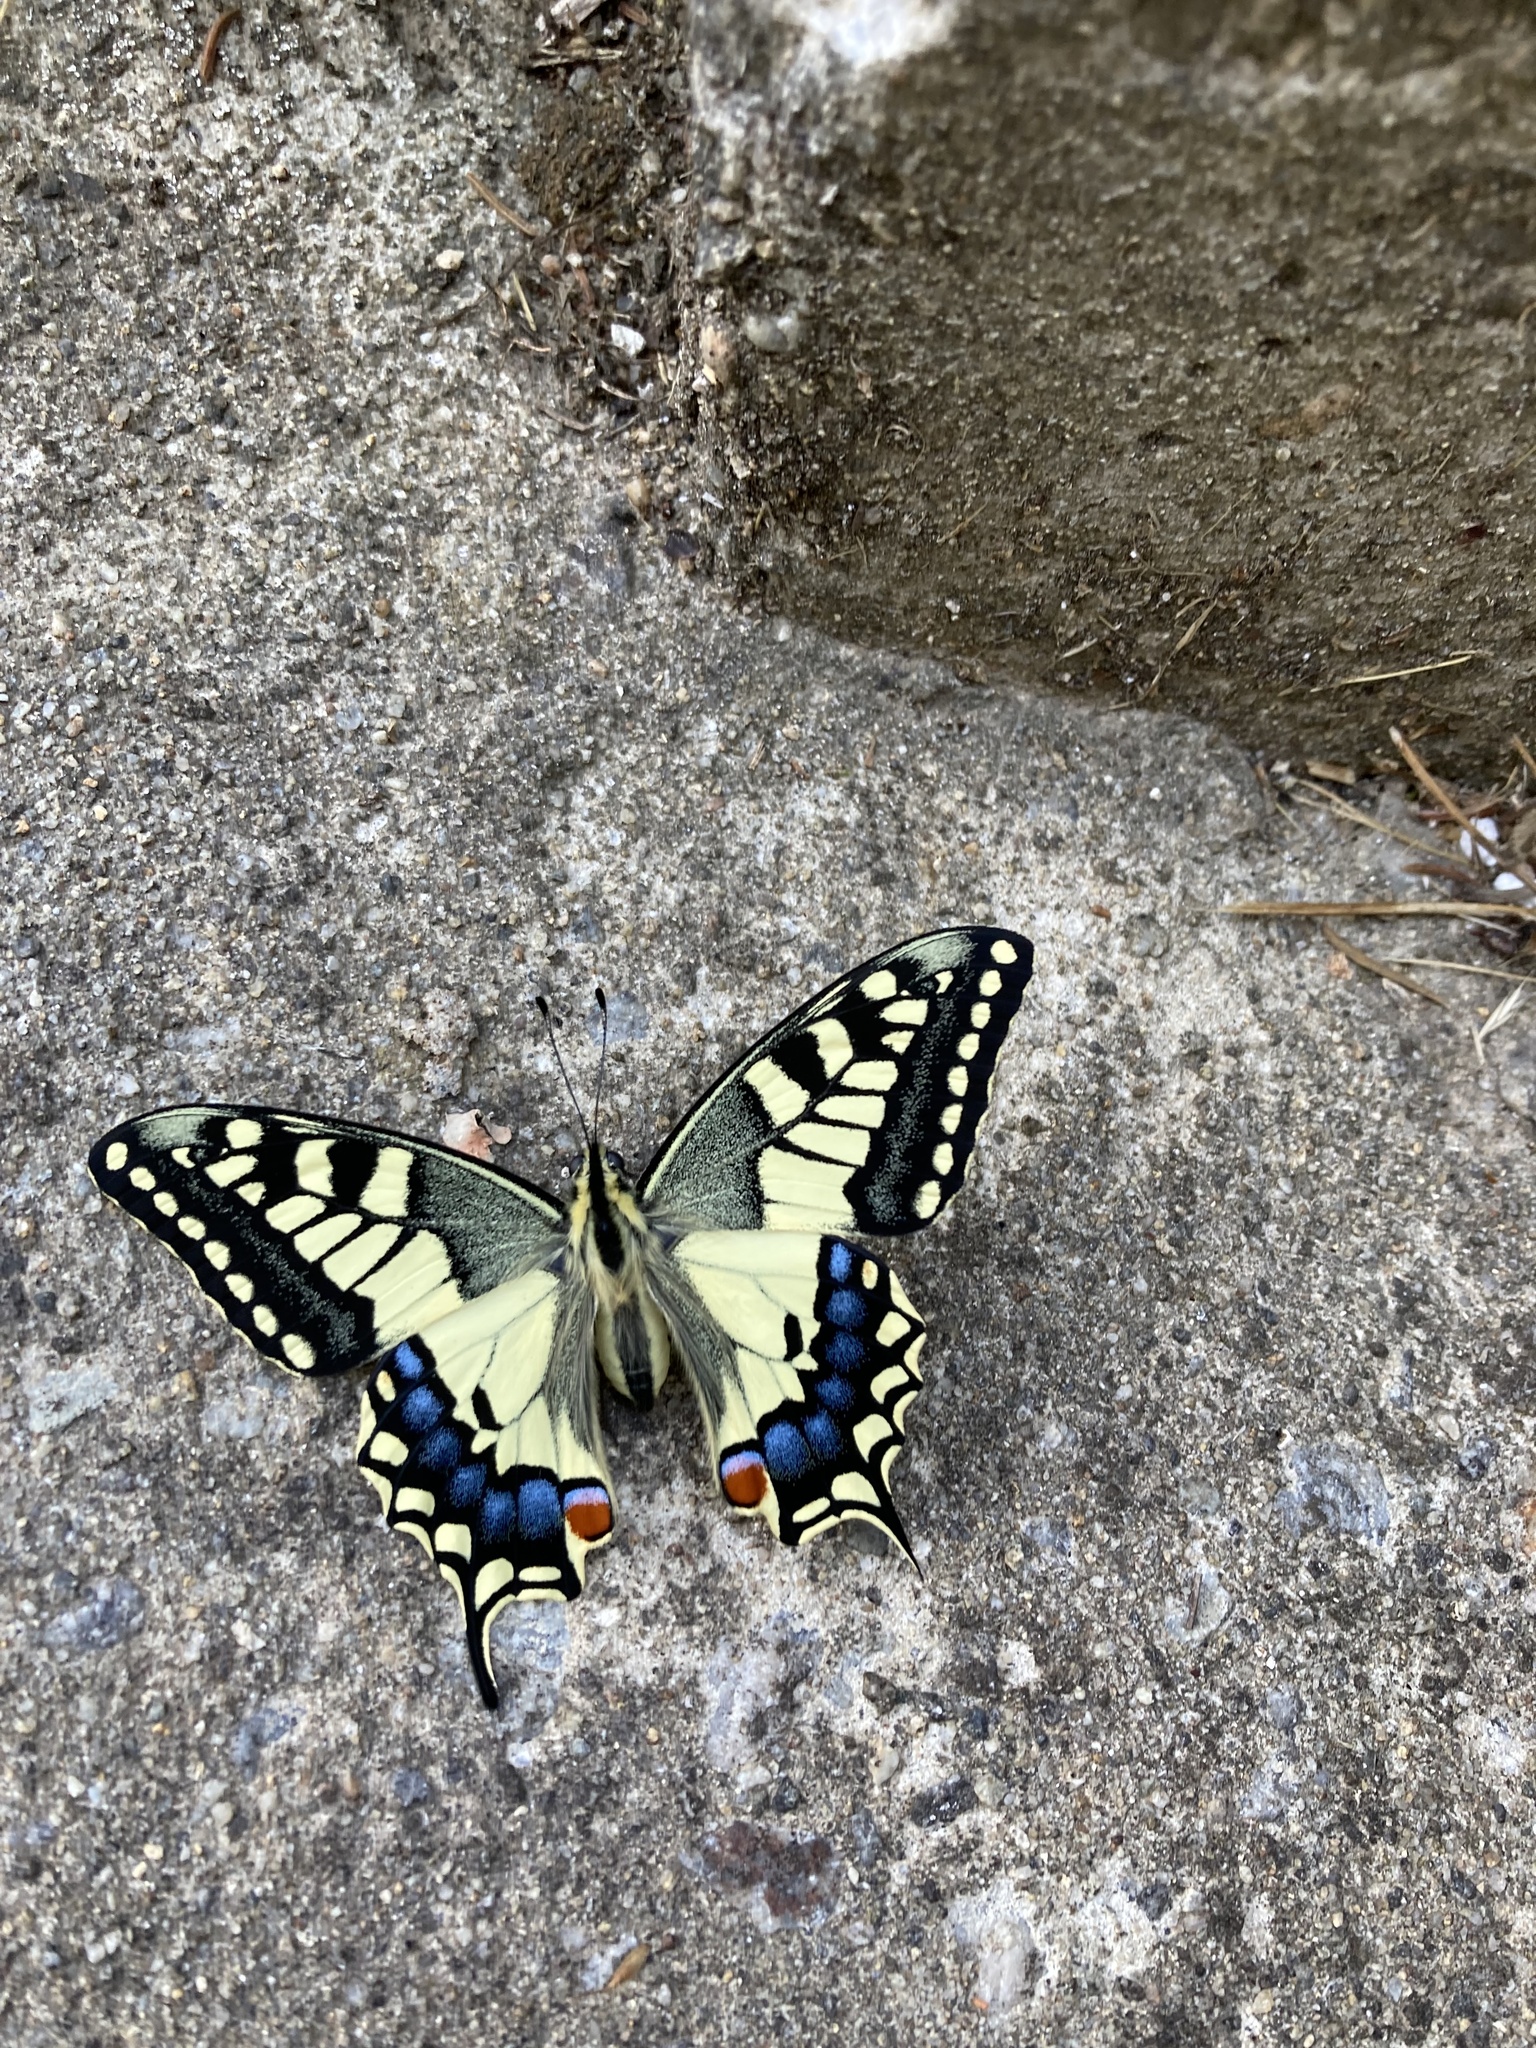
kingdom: Animalia
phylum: Arthropoda
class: Insecta
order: Lepidoptera
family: Papilionidae
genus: Papilio
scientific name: Papilio machaon
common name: Swallowtail
